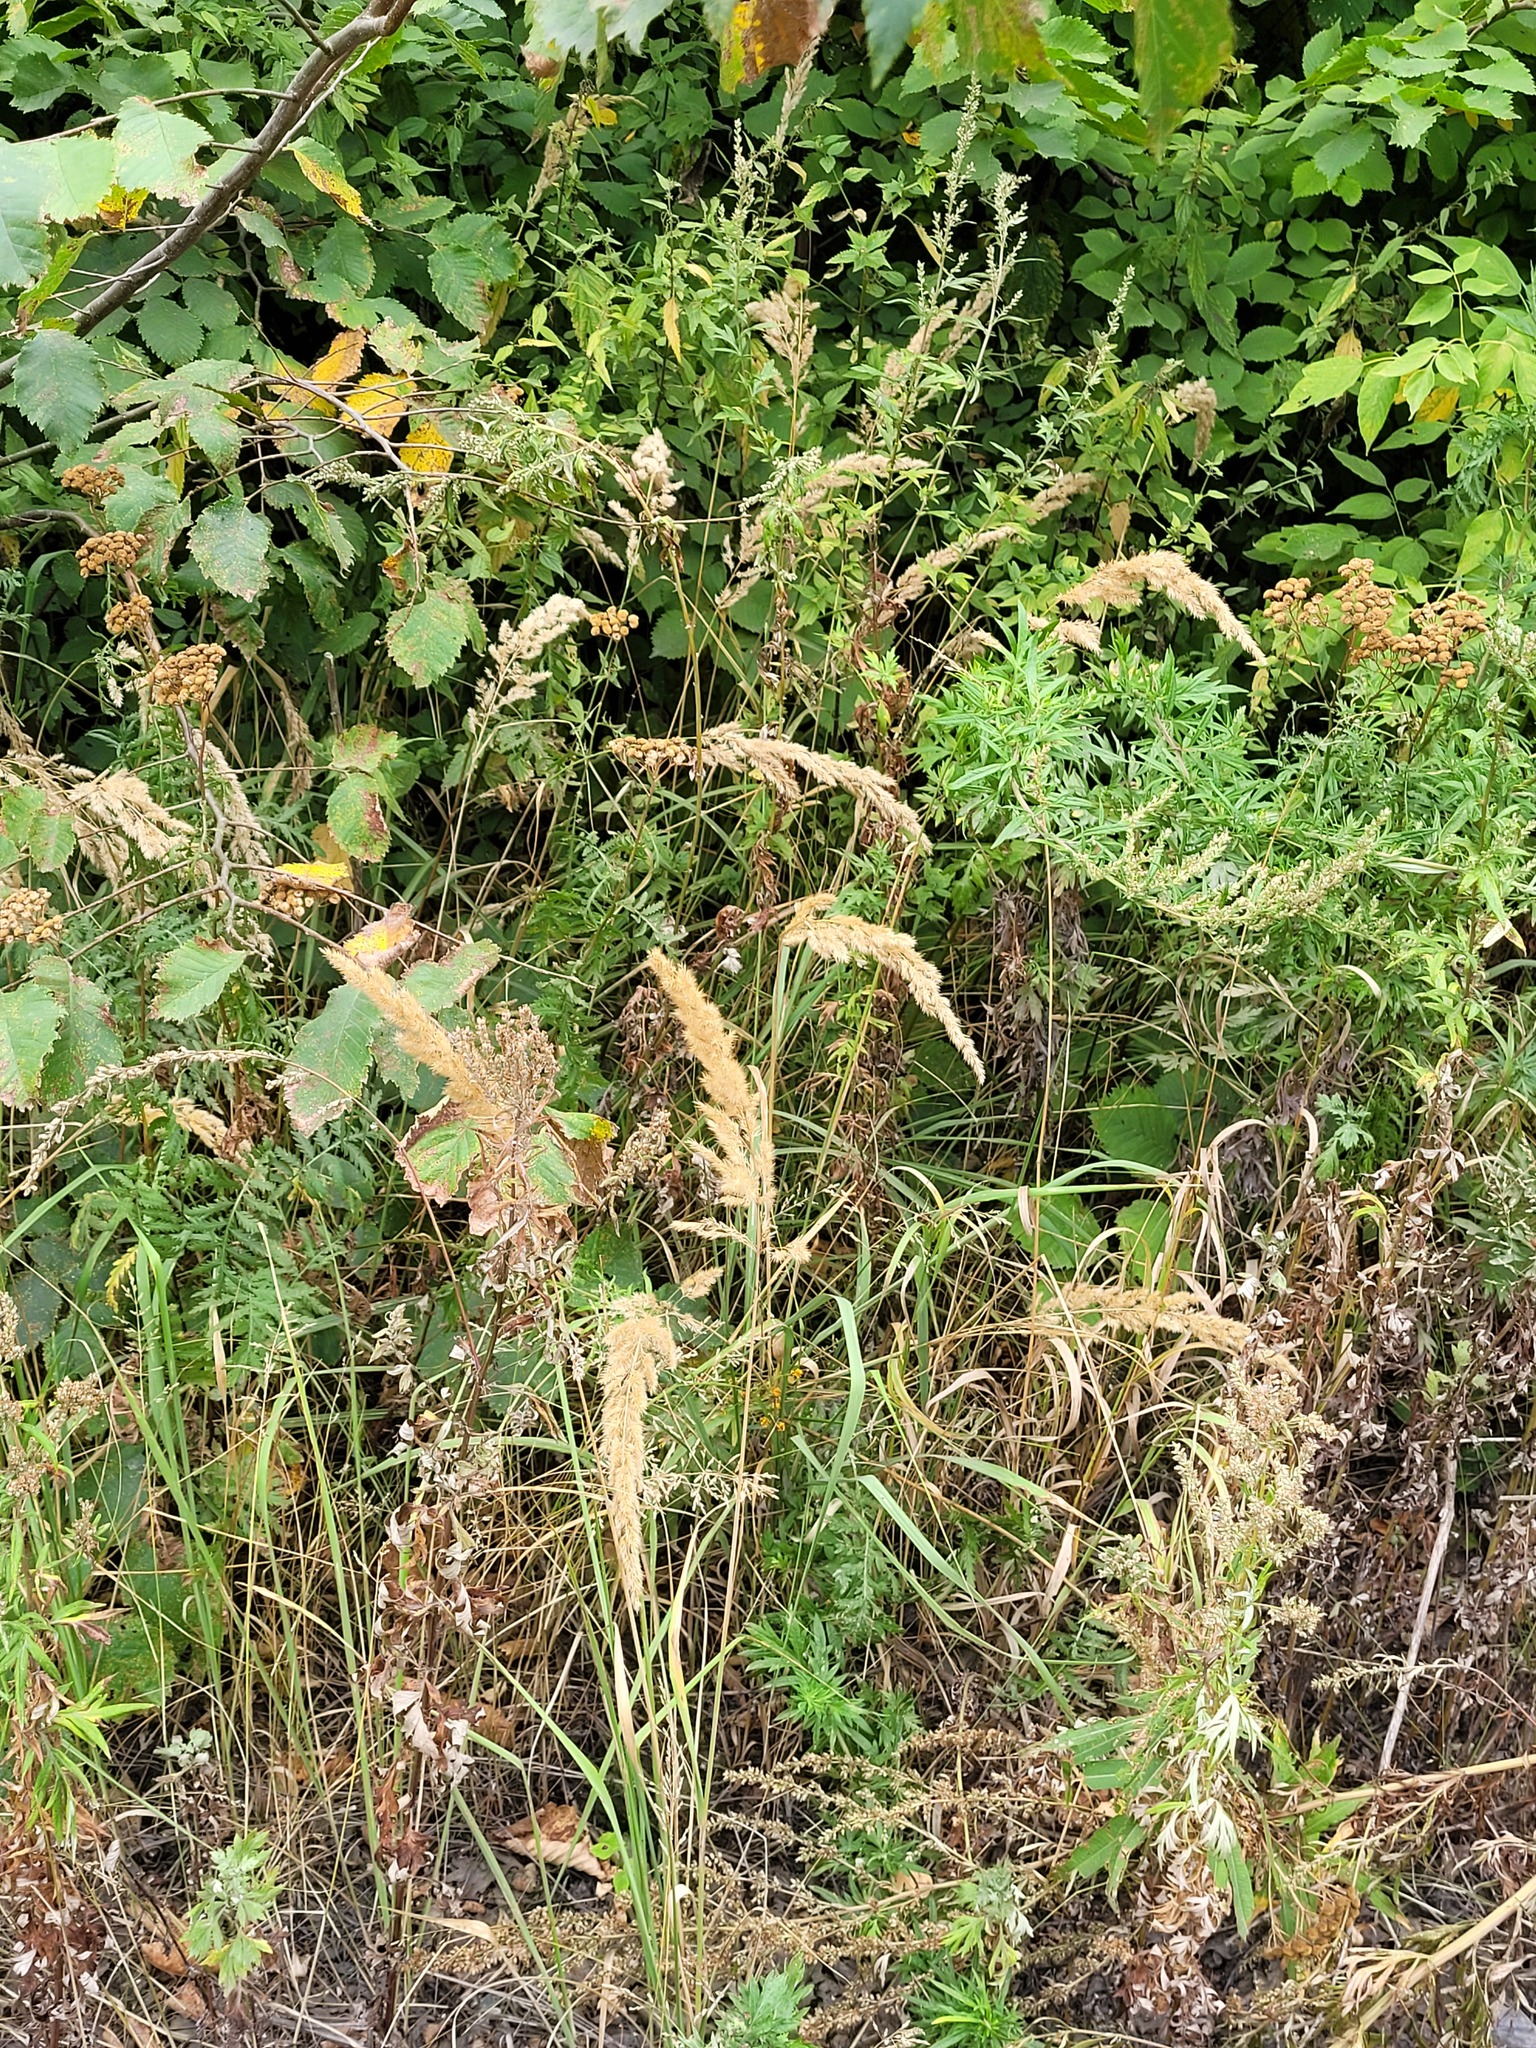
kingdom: Plantae
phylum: Tracheophyta
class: Liliopsida
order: Poales
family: Poaceae
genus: Calamagrostis
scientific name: Calamagrostis epigejos
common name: Wood small-reed
